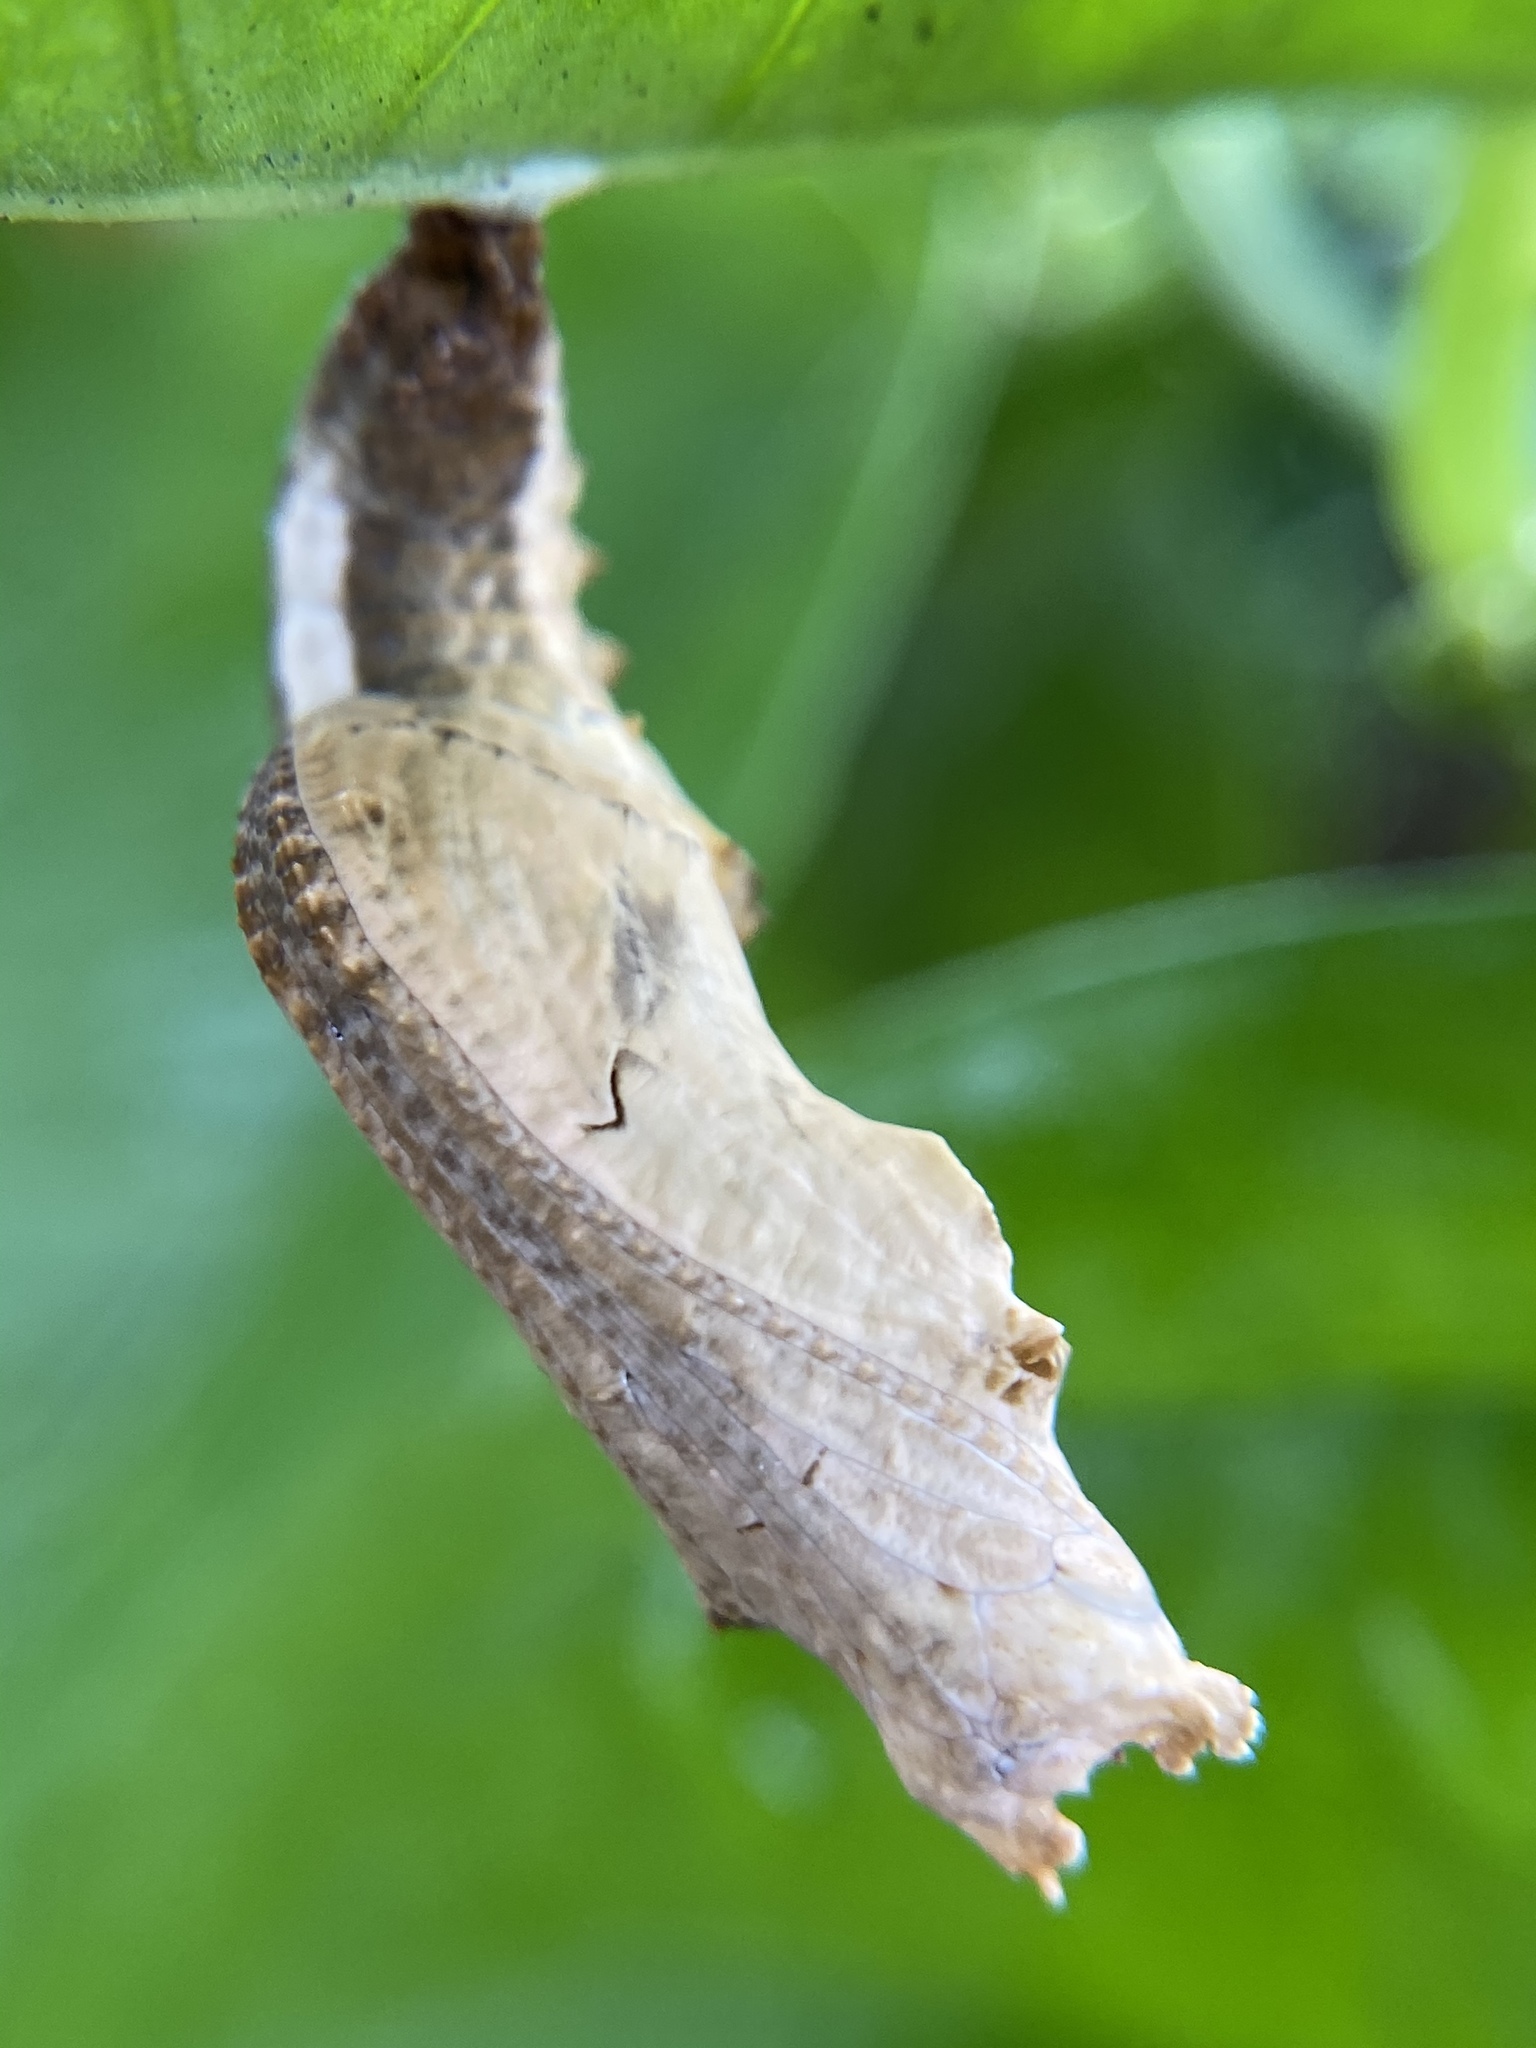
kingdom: Animalia
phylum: Arthropoda
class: Insecta
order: Lepidoptera
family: Nymphalidae
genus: Dione
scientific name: Dione vanillae
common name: Gulf fritillary
